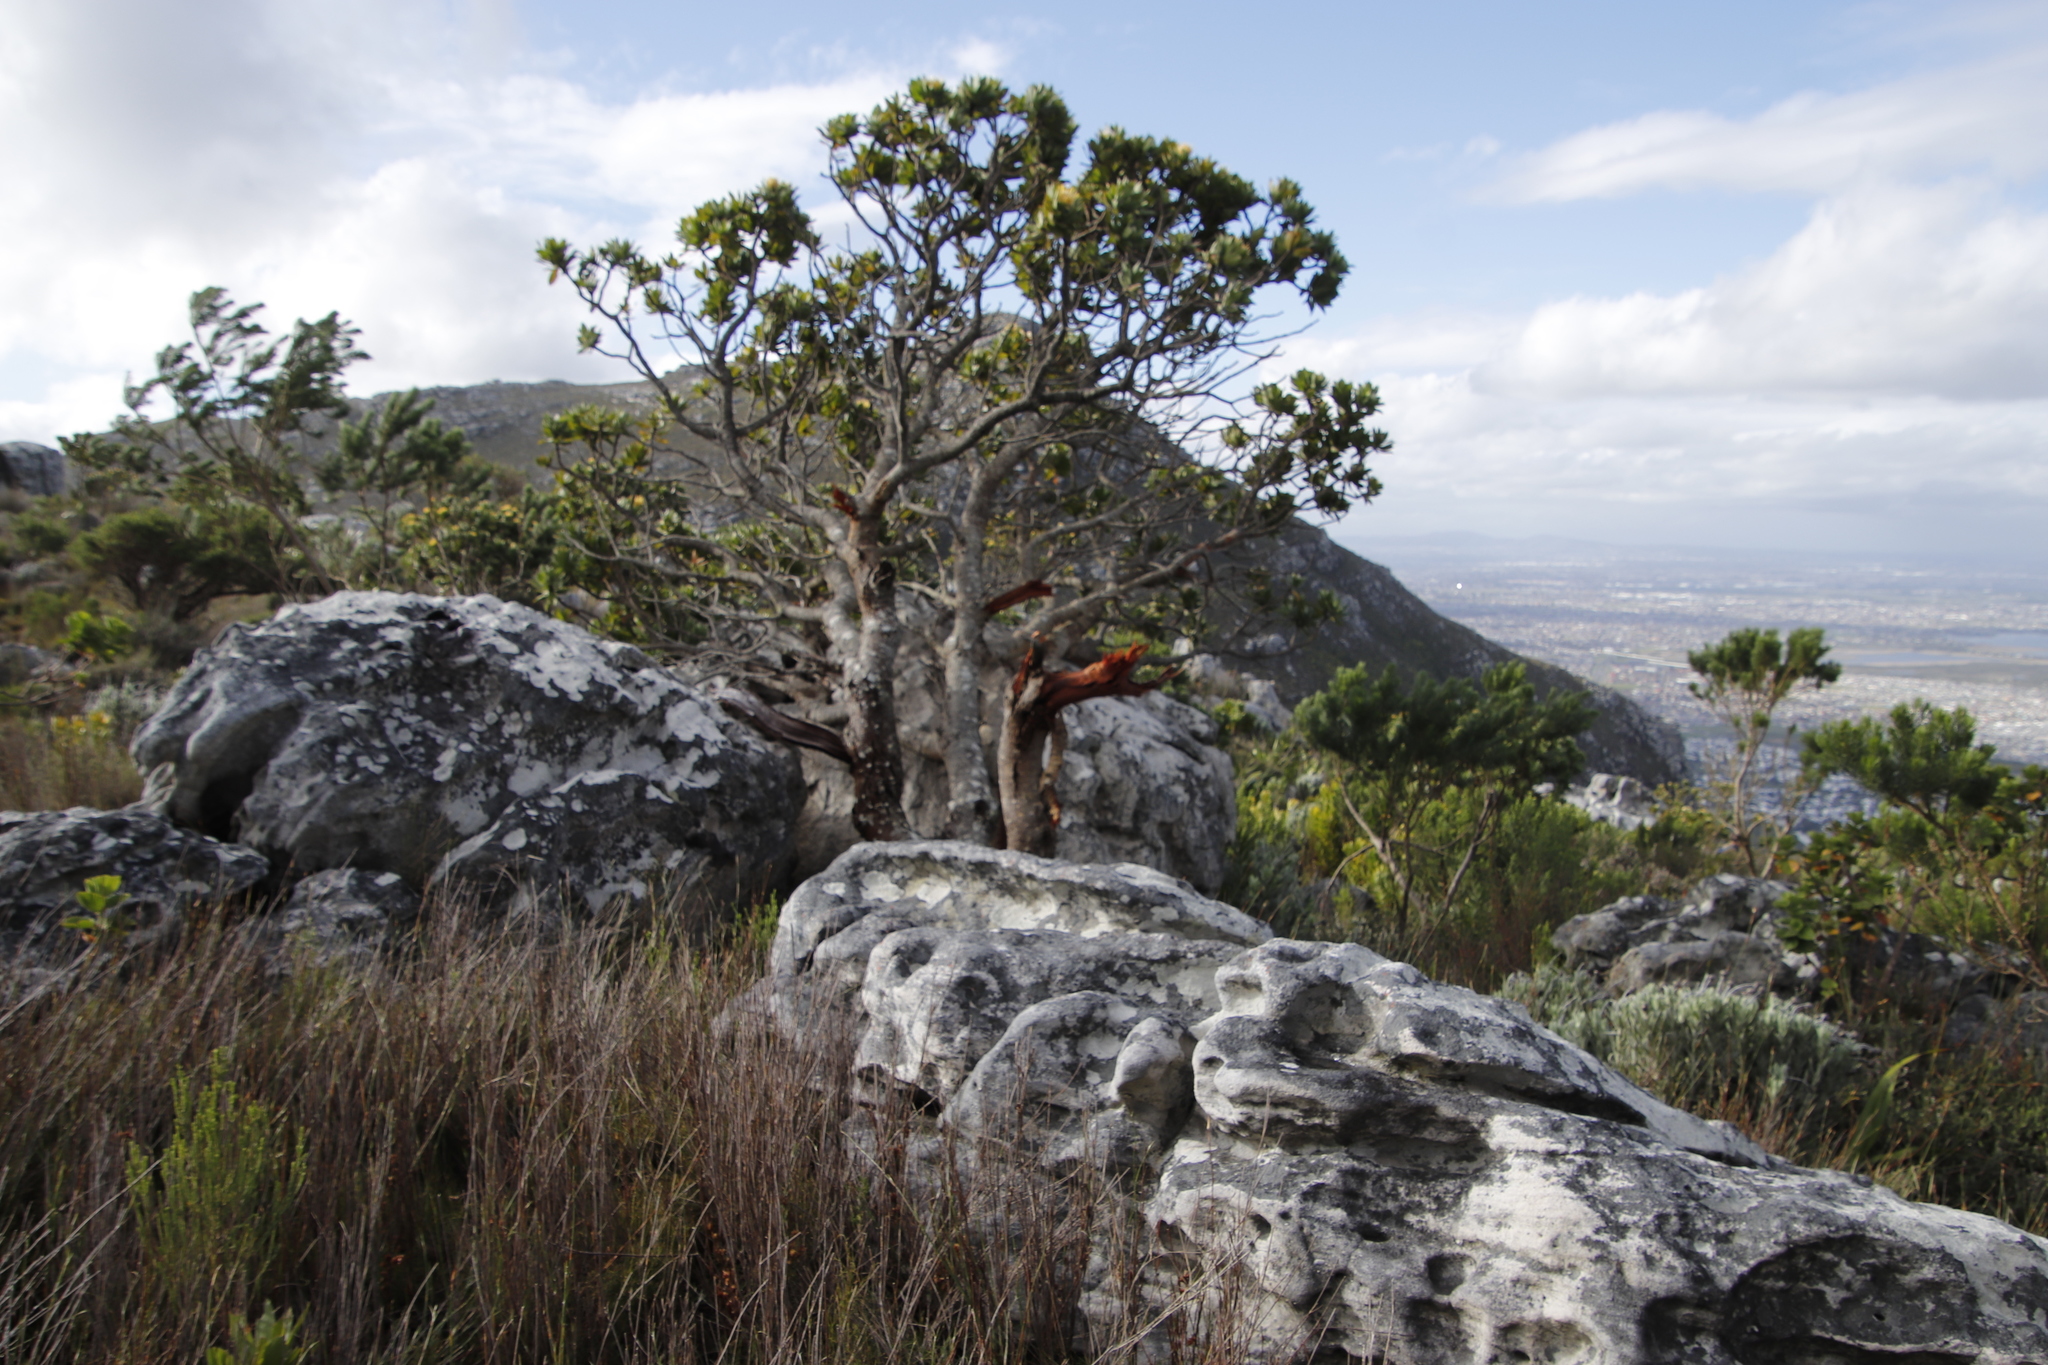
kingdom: Plantae
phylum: Tracheophyta
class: Magnoliopsida
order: Proteales
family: Proteaceae
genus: Leucospermum
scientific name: Leucospermum conocarpodendron
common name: Tree pincushion
